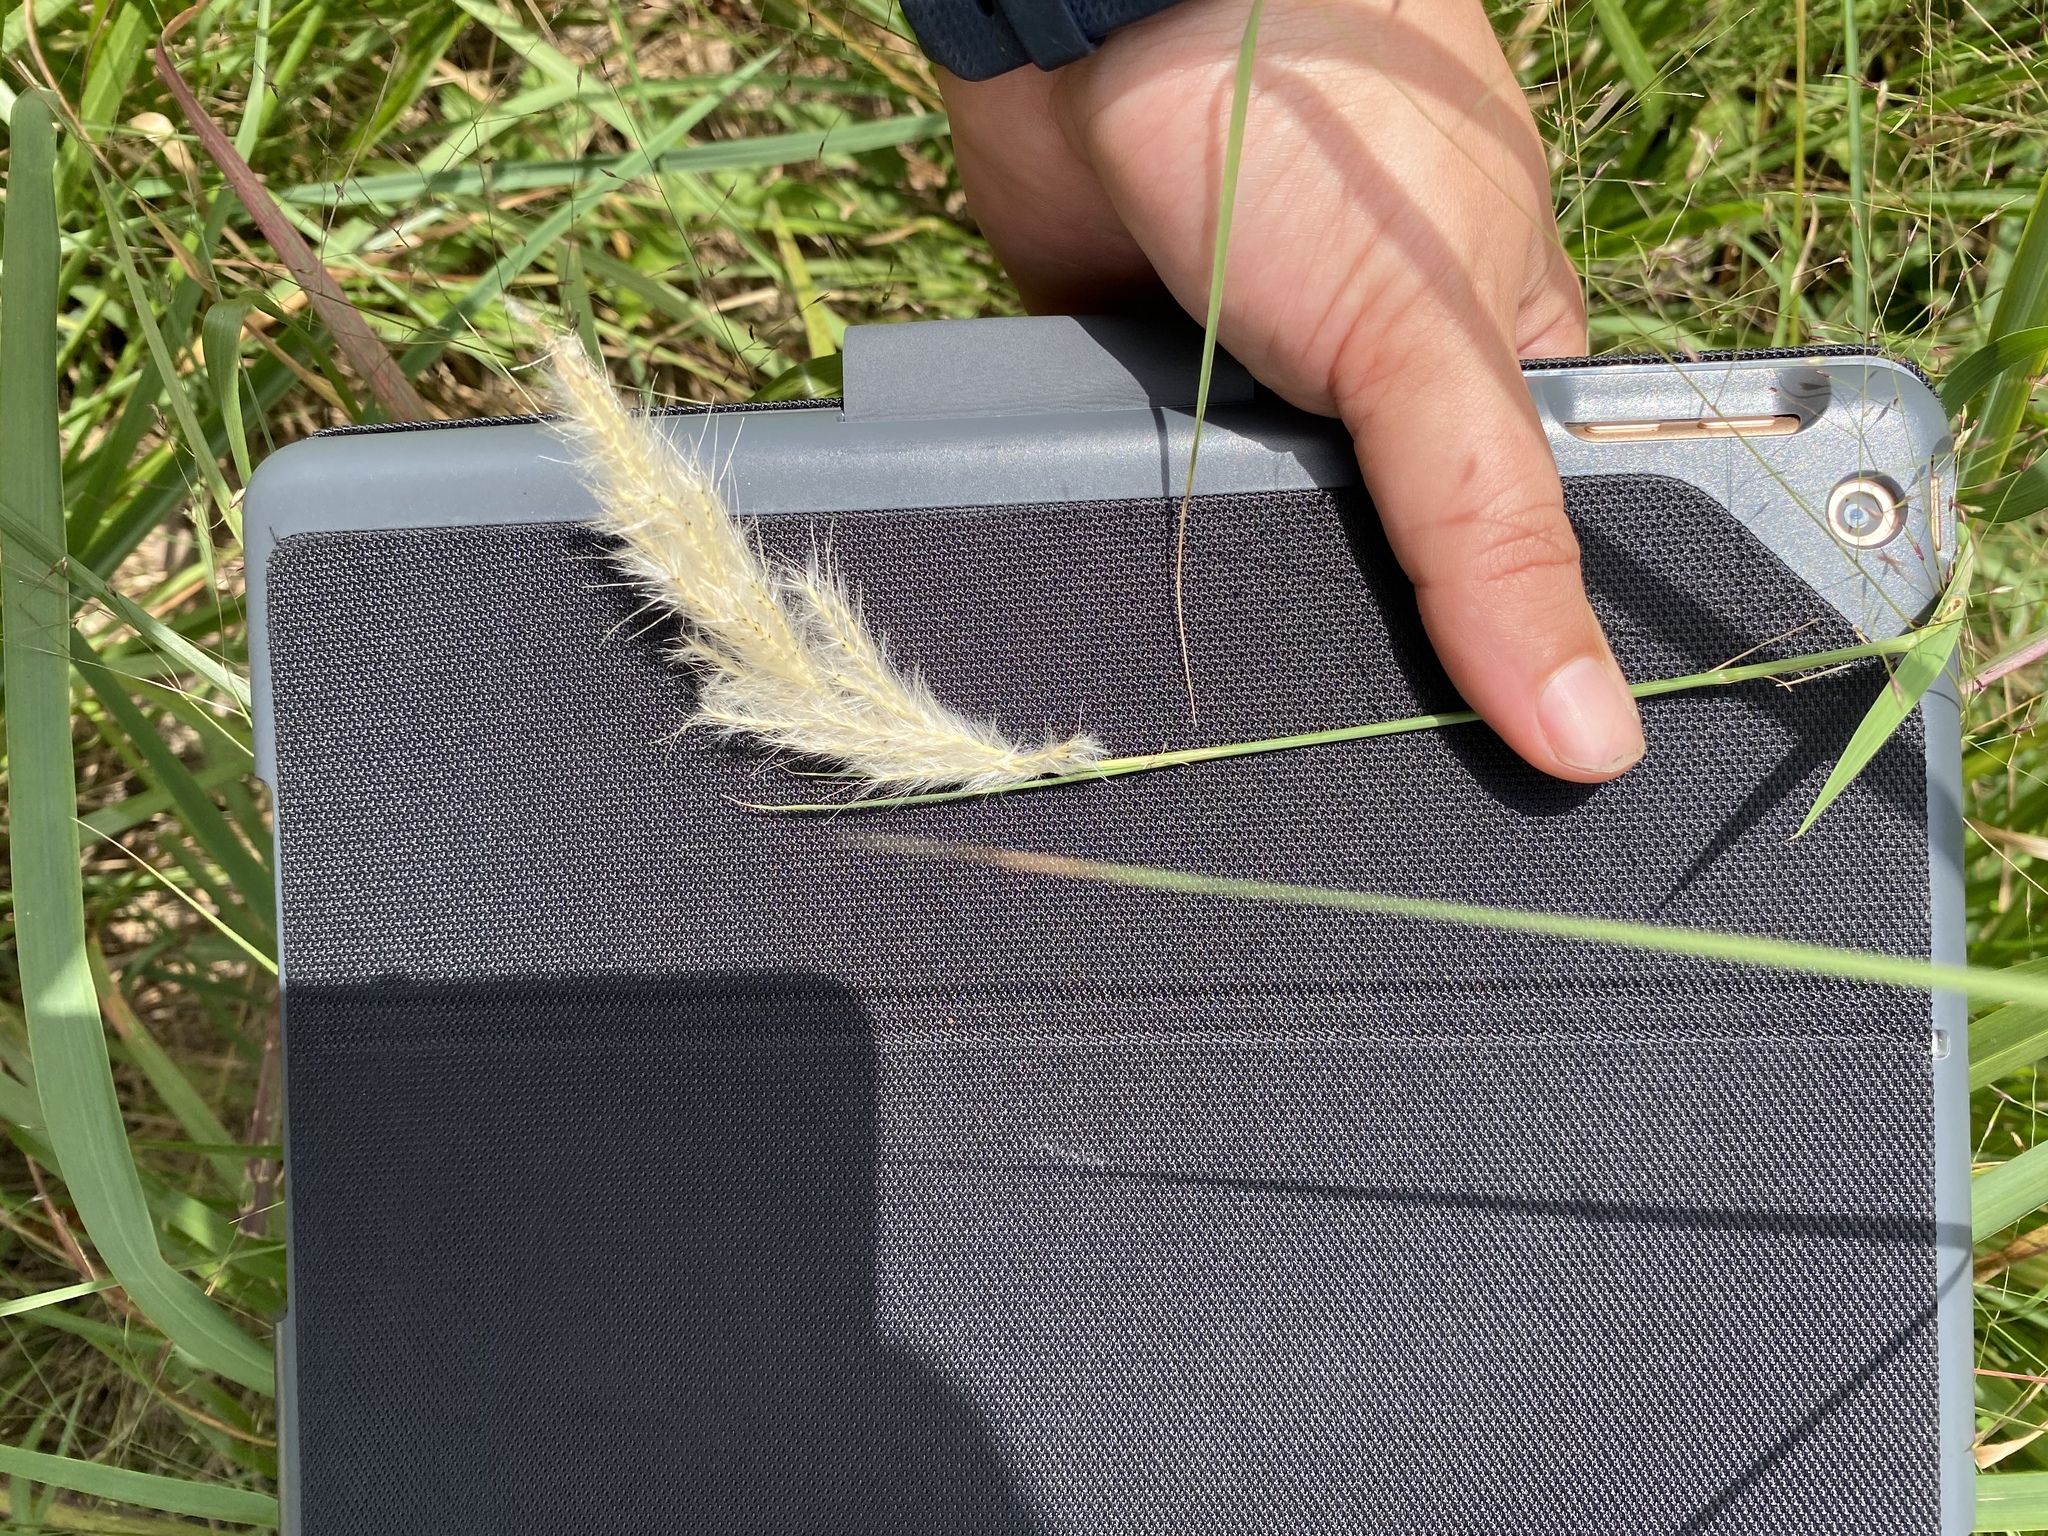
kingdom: Plantae
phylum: Tracheophyta
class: Liliopsida
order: Poales
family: Poaceae
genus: Bothriochloa
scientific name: Bothriochloa torreyana
